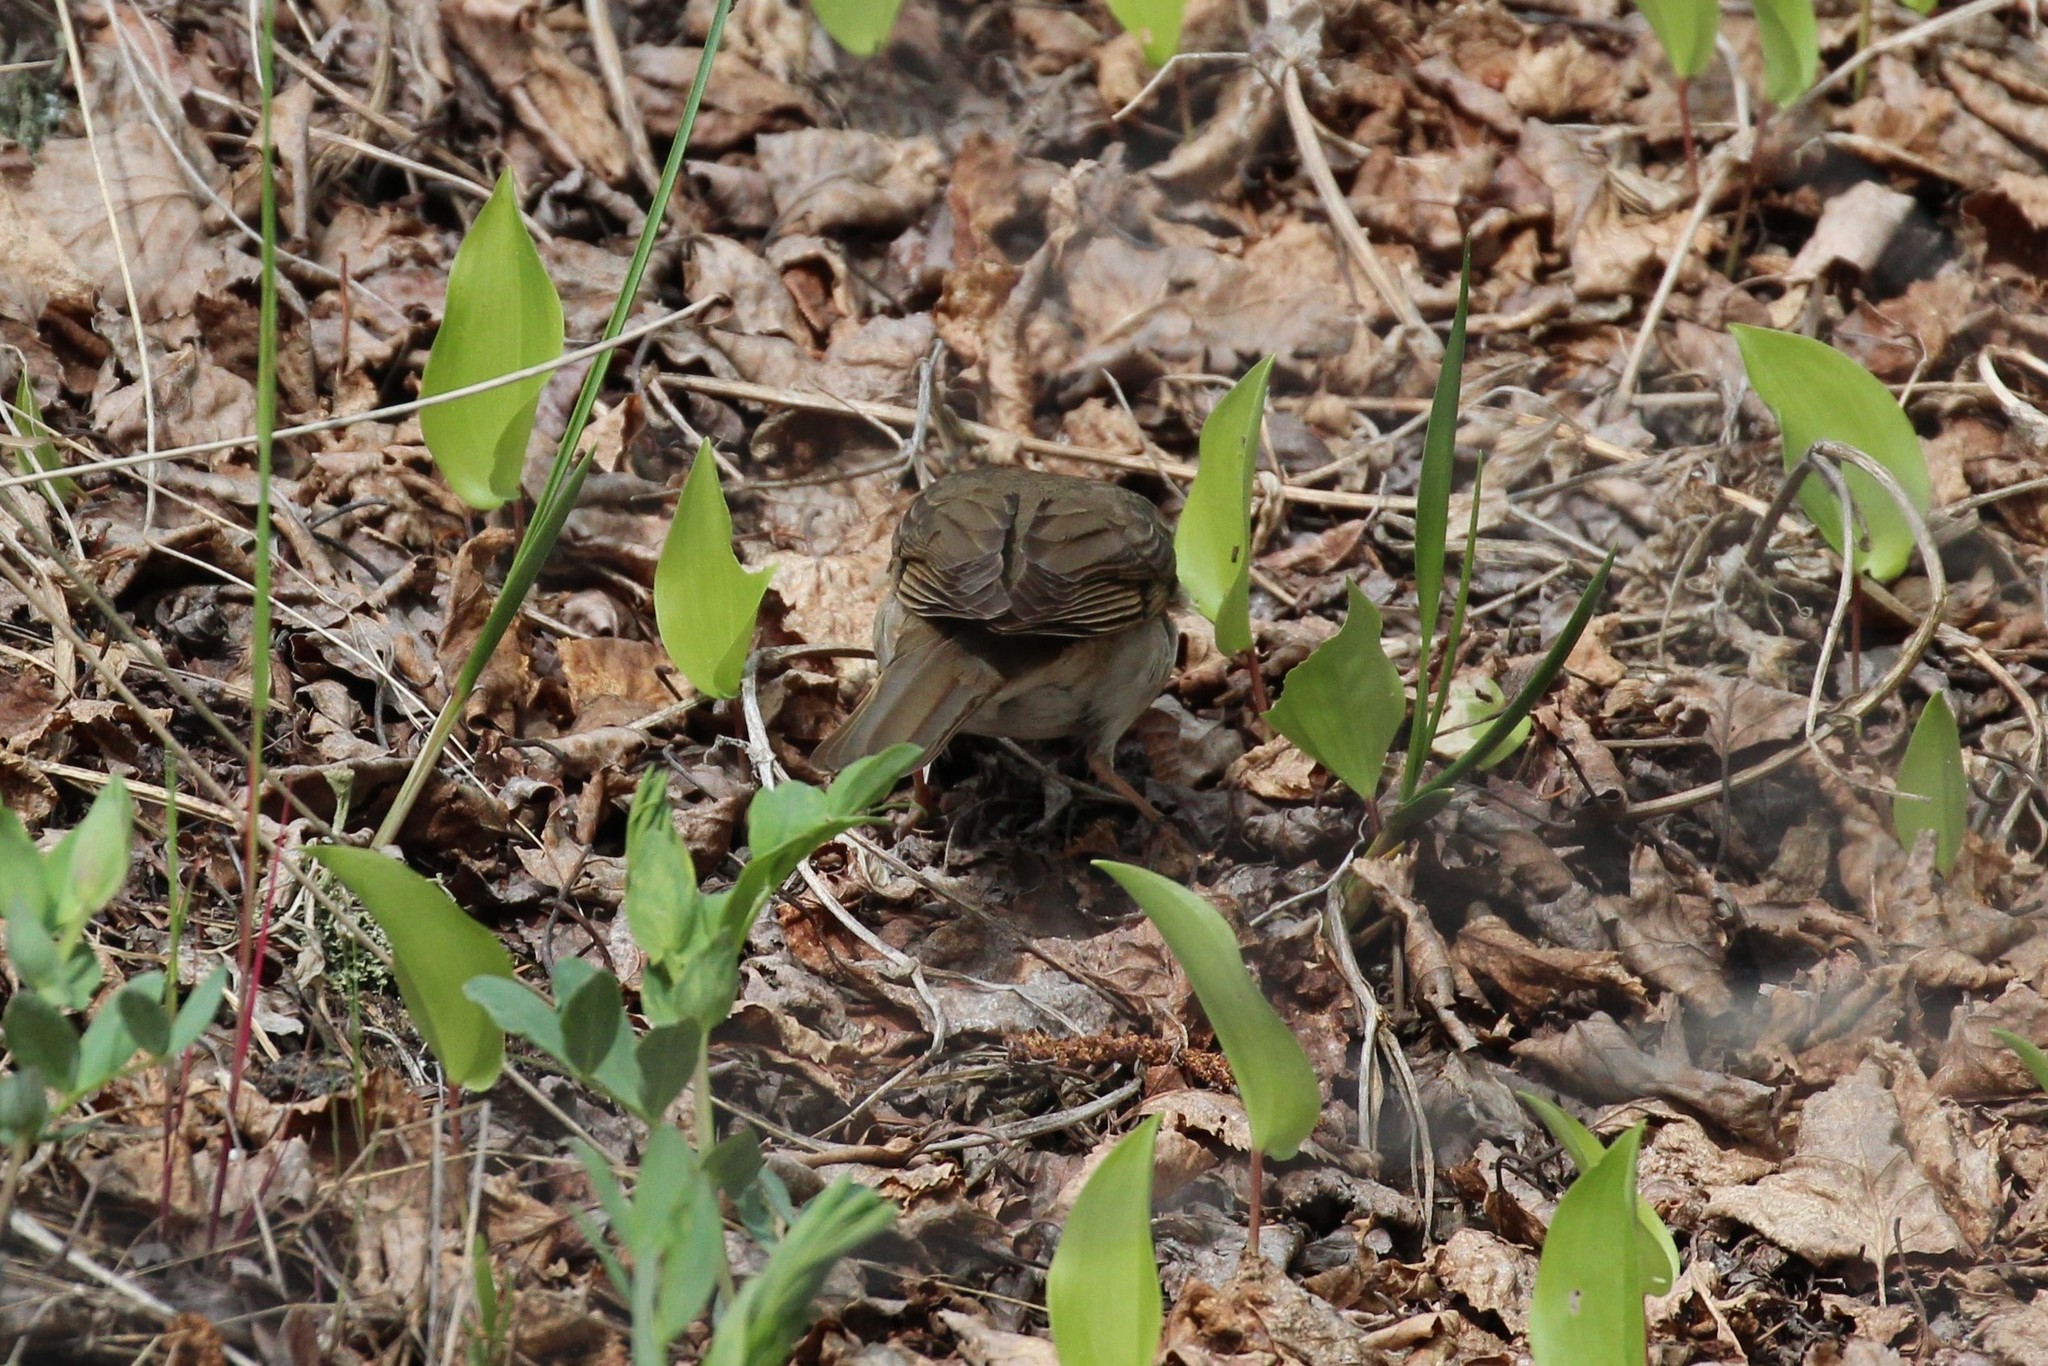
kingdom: Animalia
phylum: Chordata
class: Aves
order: Passeriformes
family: Turdidae
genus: Catharus
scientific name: Catharus ustulatus
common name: Swainson's thrush
